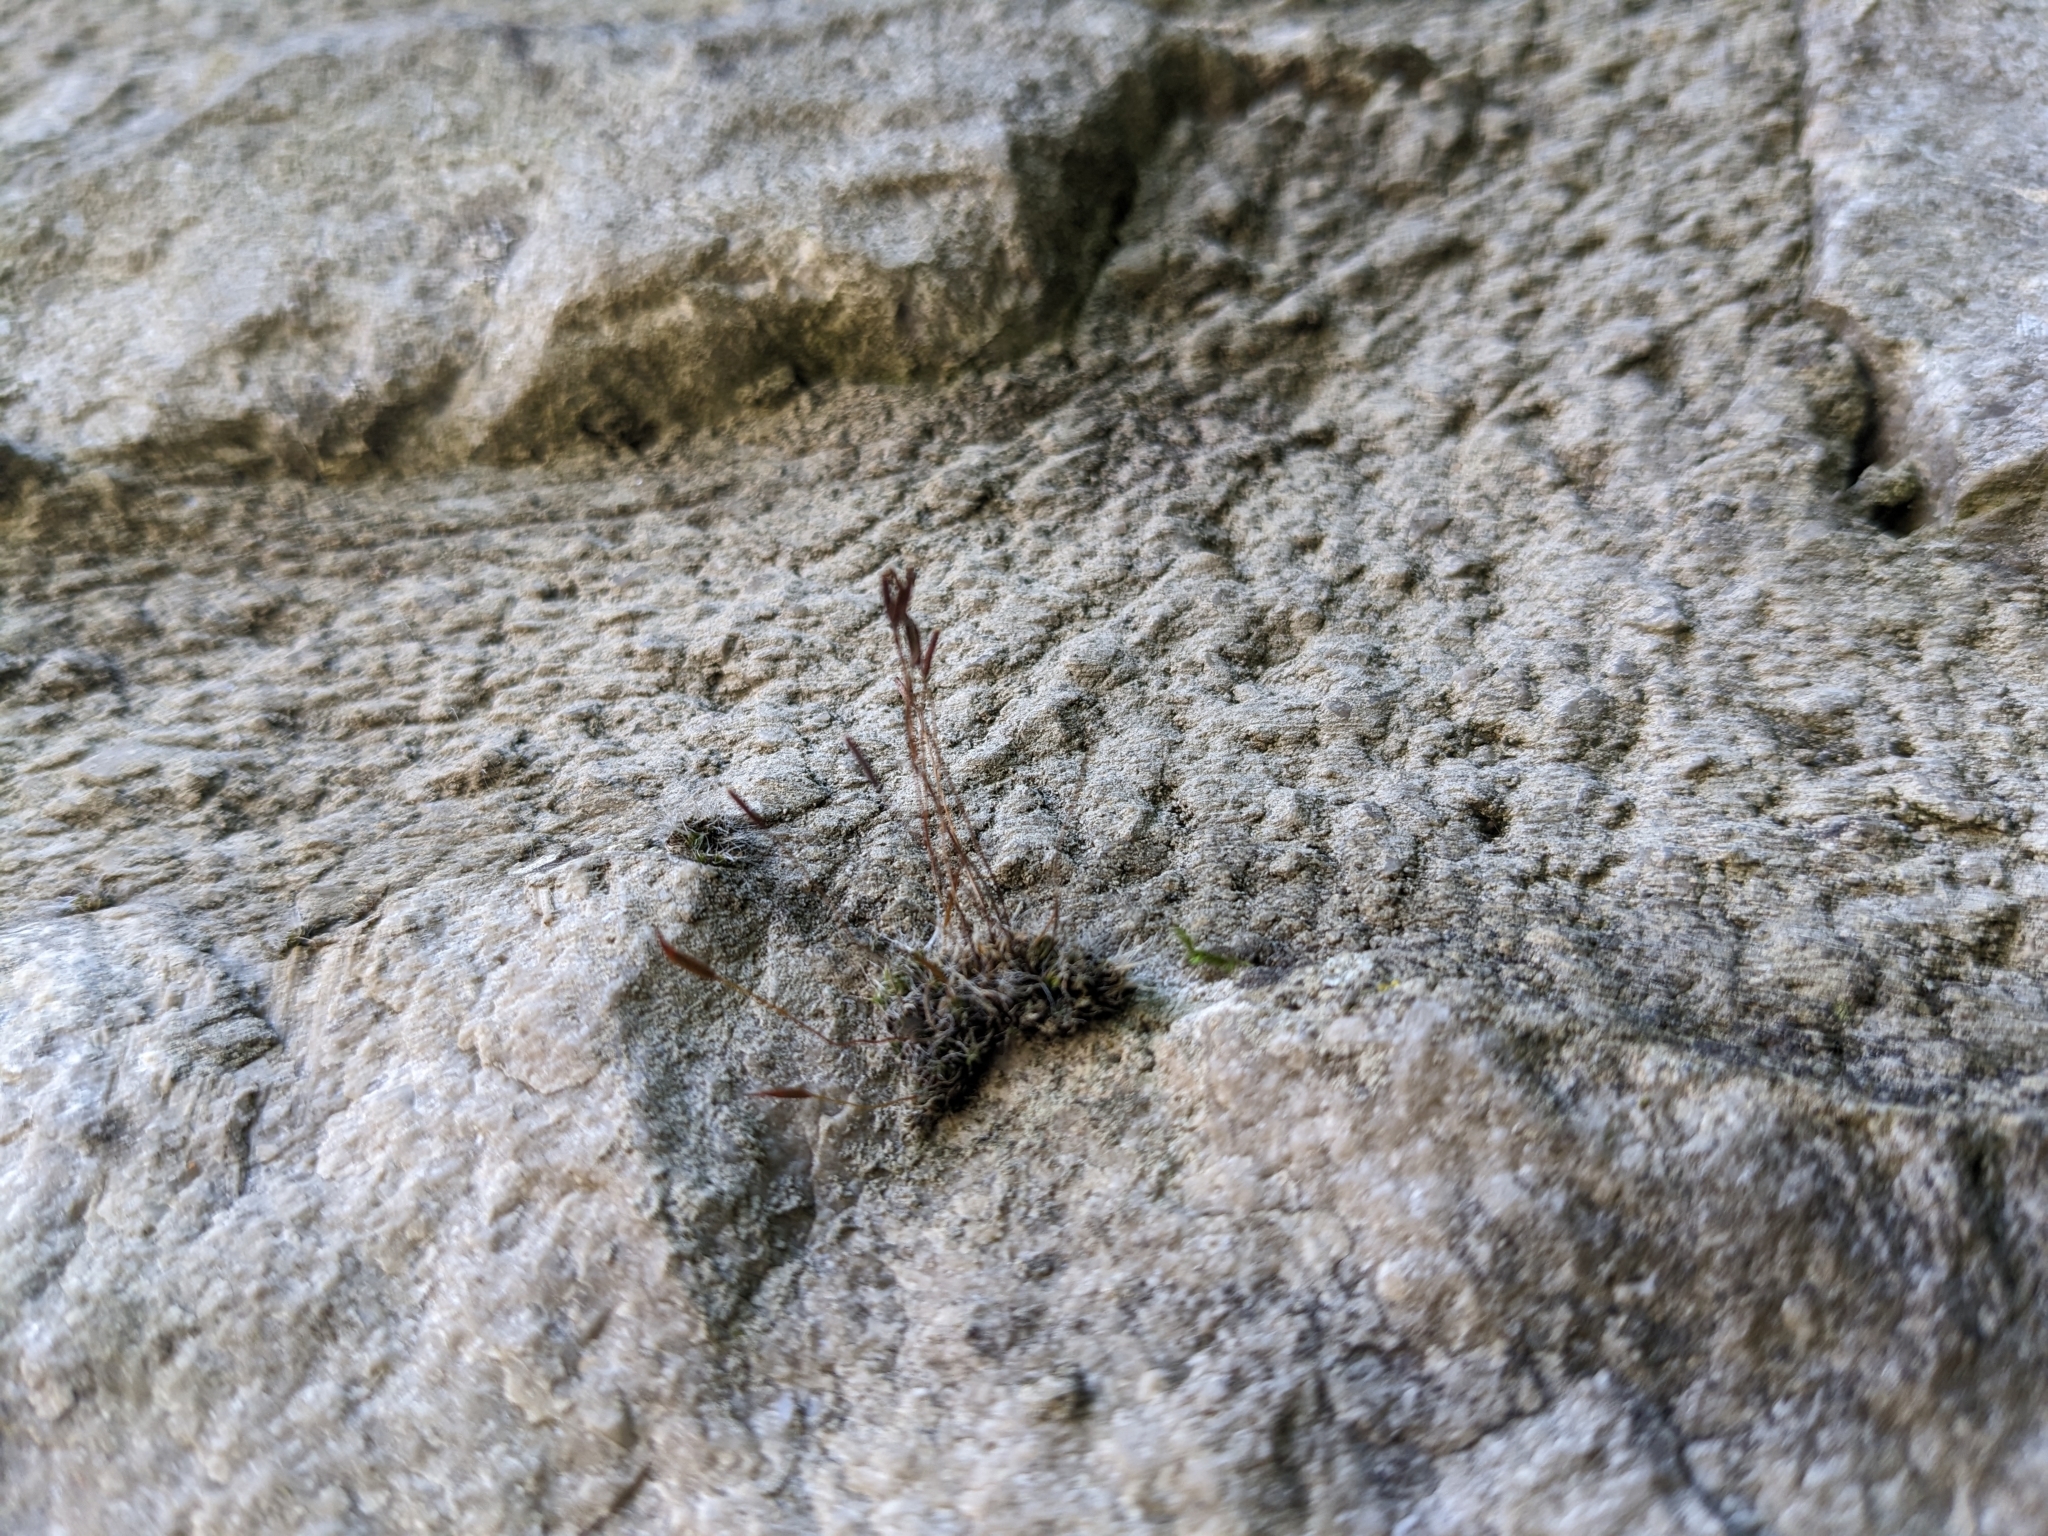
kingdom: Plantae
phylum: Bryophyta
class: Bryopsida
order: Pottiales
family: Pottiaceae
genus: Tortula
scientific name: Tortula muralis
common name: Wall screw-moss
